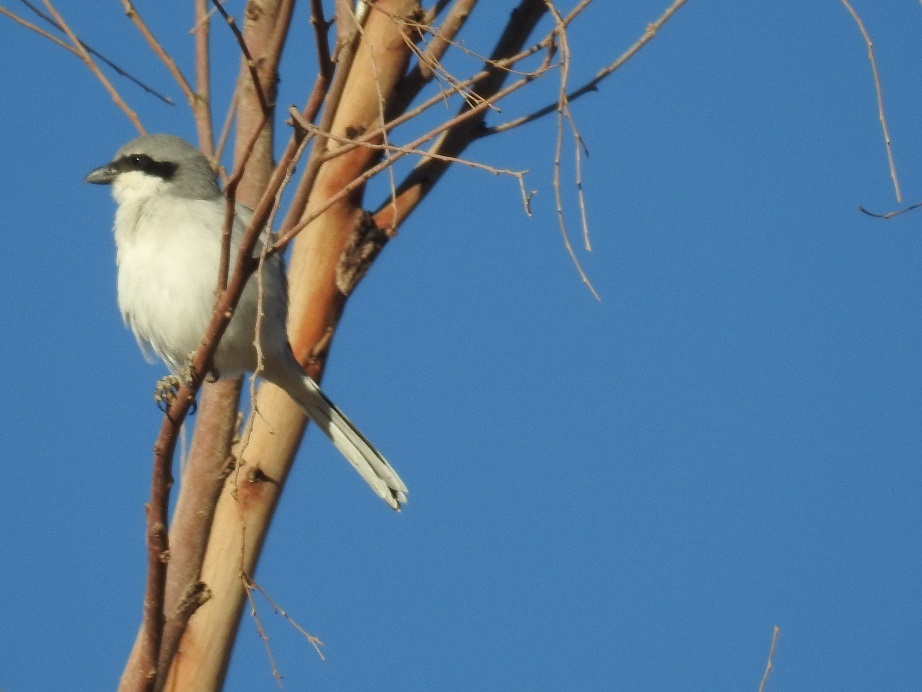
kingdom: Animalia
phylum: Chordata
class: Aves
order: Passeriformes
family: Laniidae
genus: Lanius
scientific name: Lanius excubitor
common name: Great grey shrike
